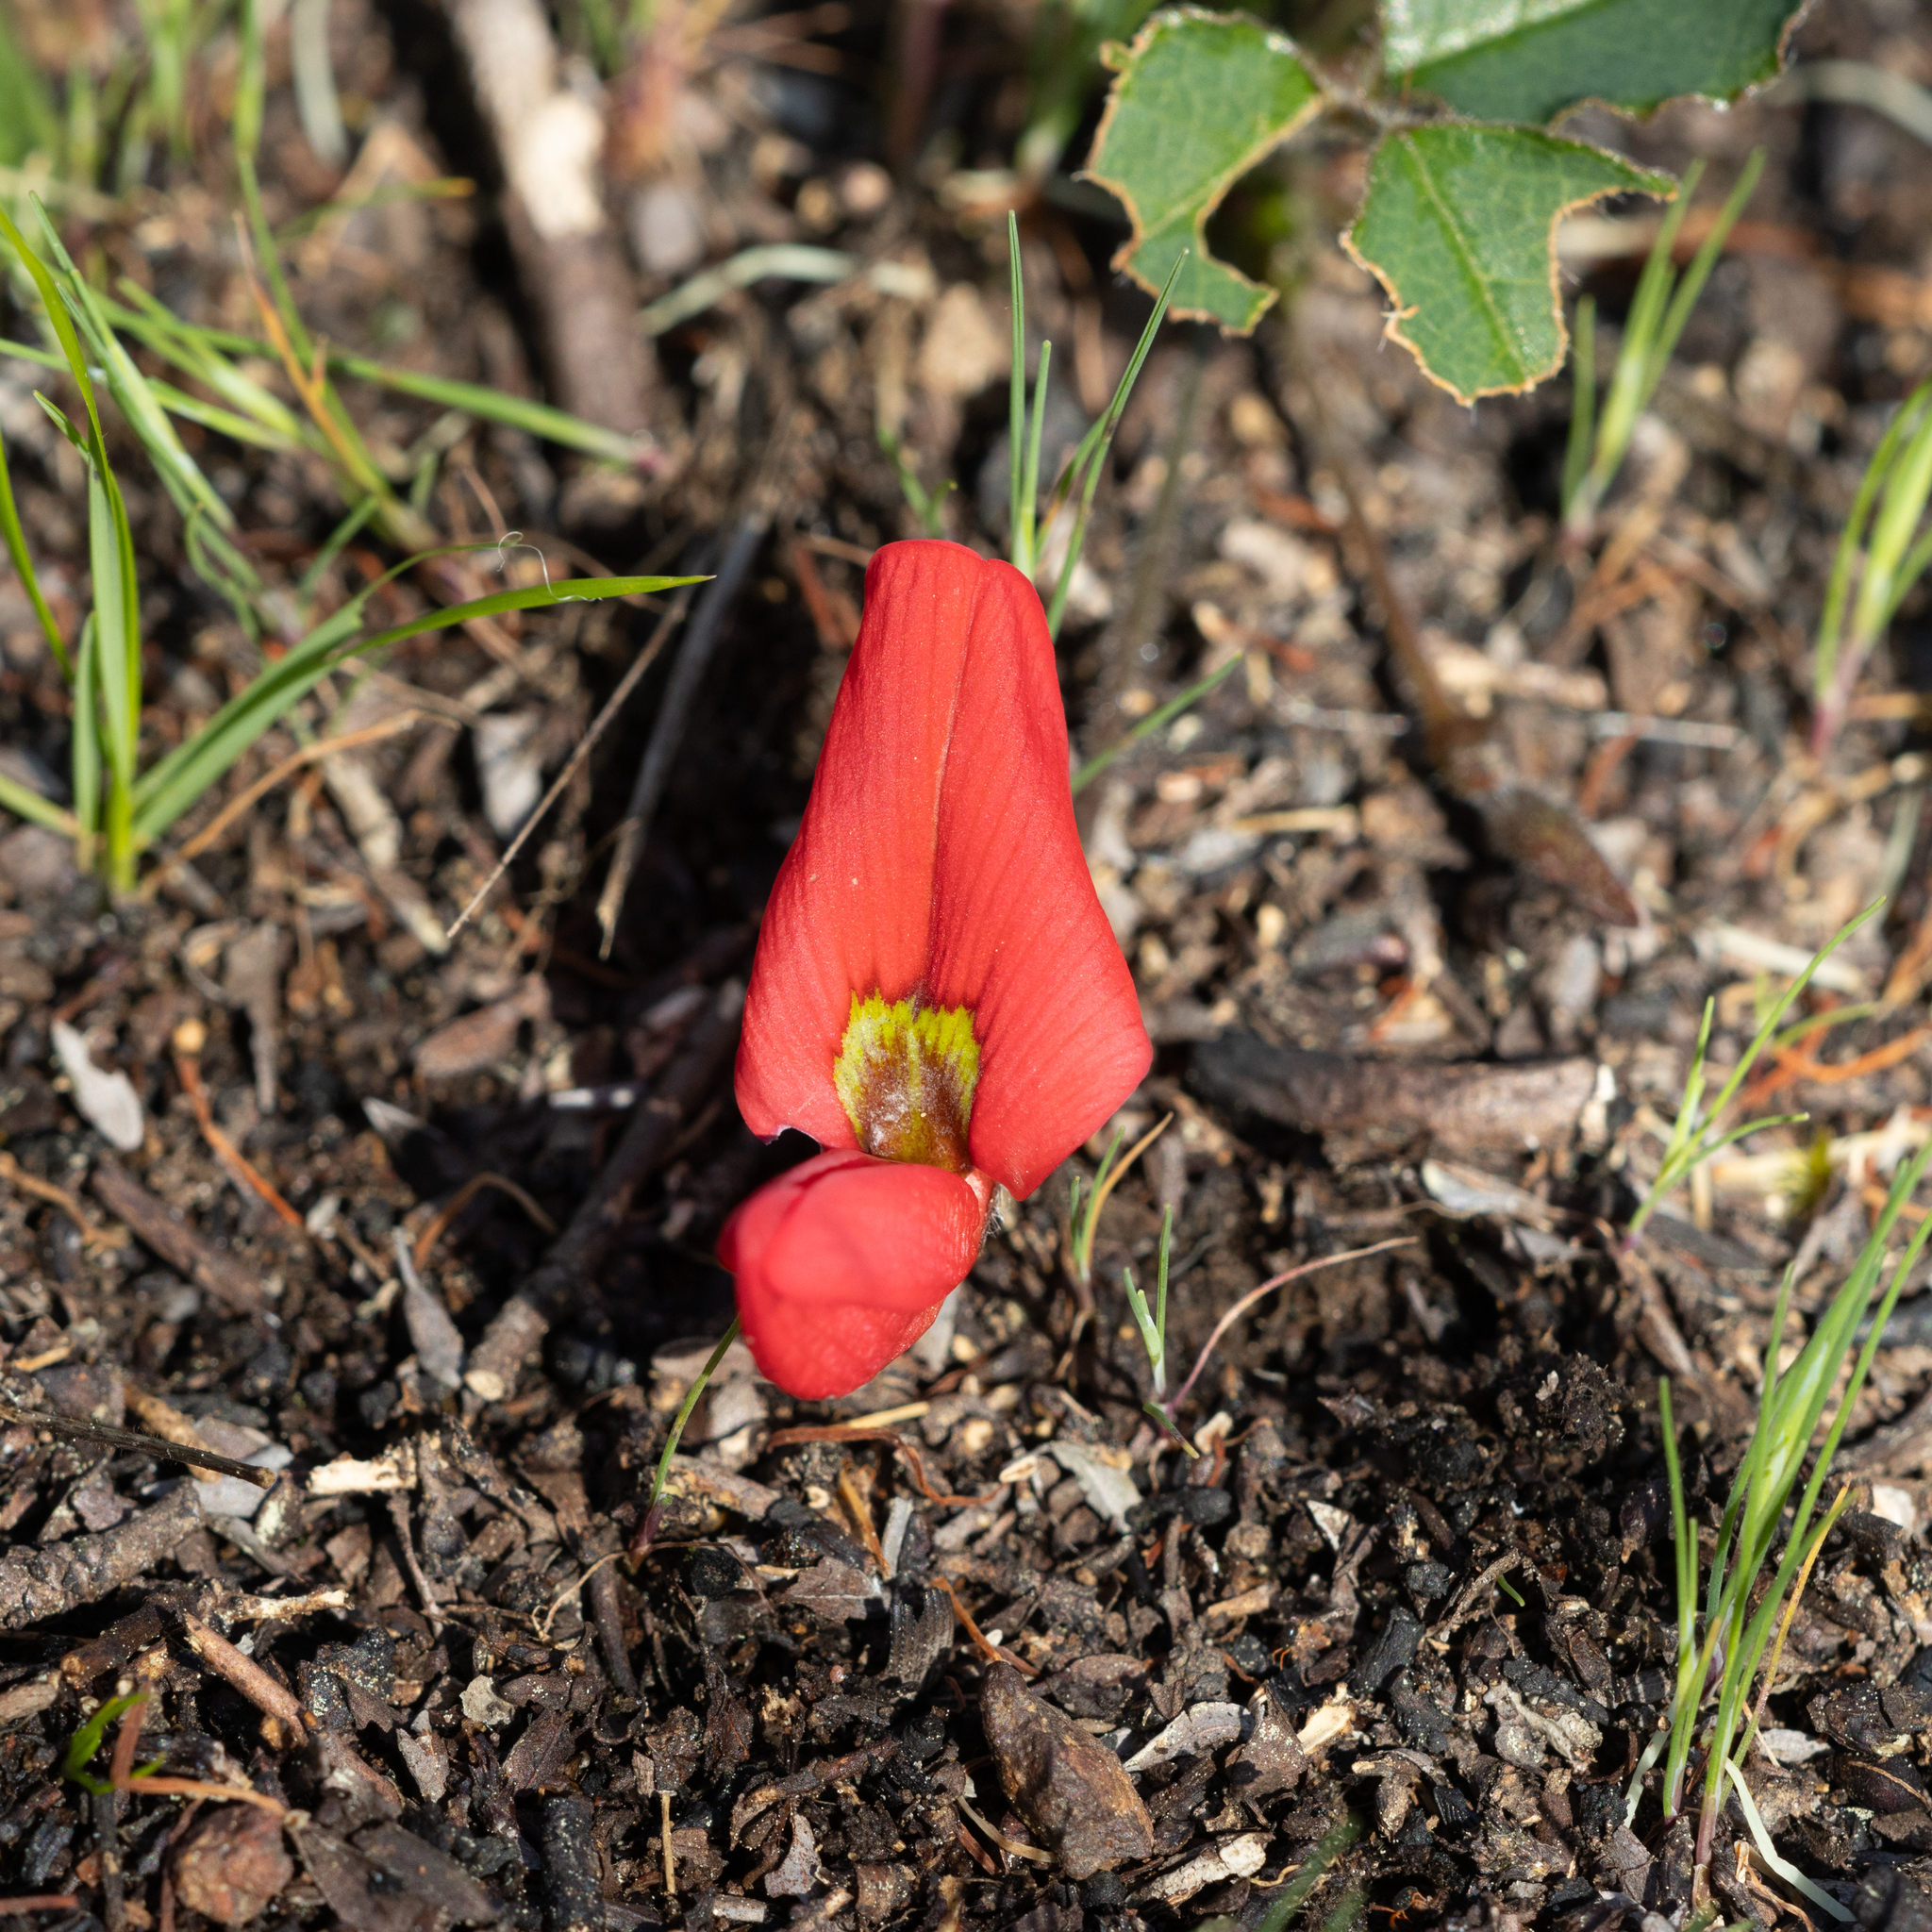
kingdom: Plantae
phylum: Tracheophyta
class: Magnoliopsida
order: Fabales
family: Fabaceae
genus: Kennedia
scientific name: Kennedia prostrata
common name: Running-postman
